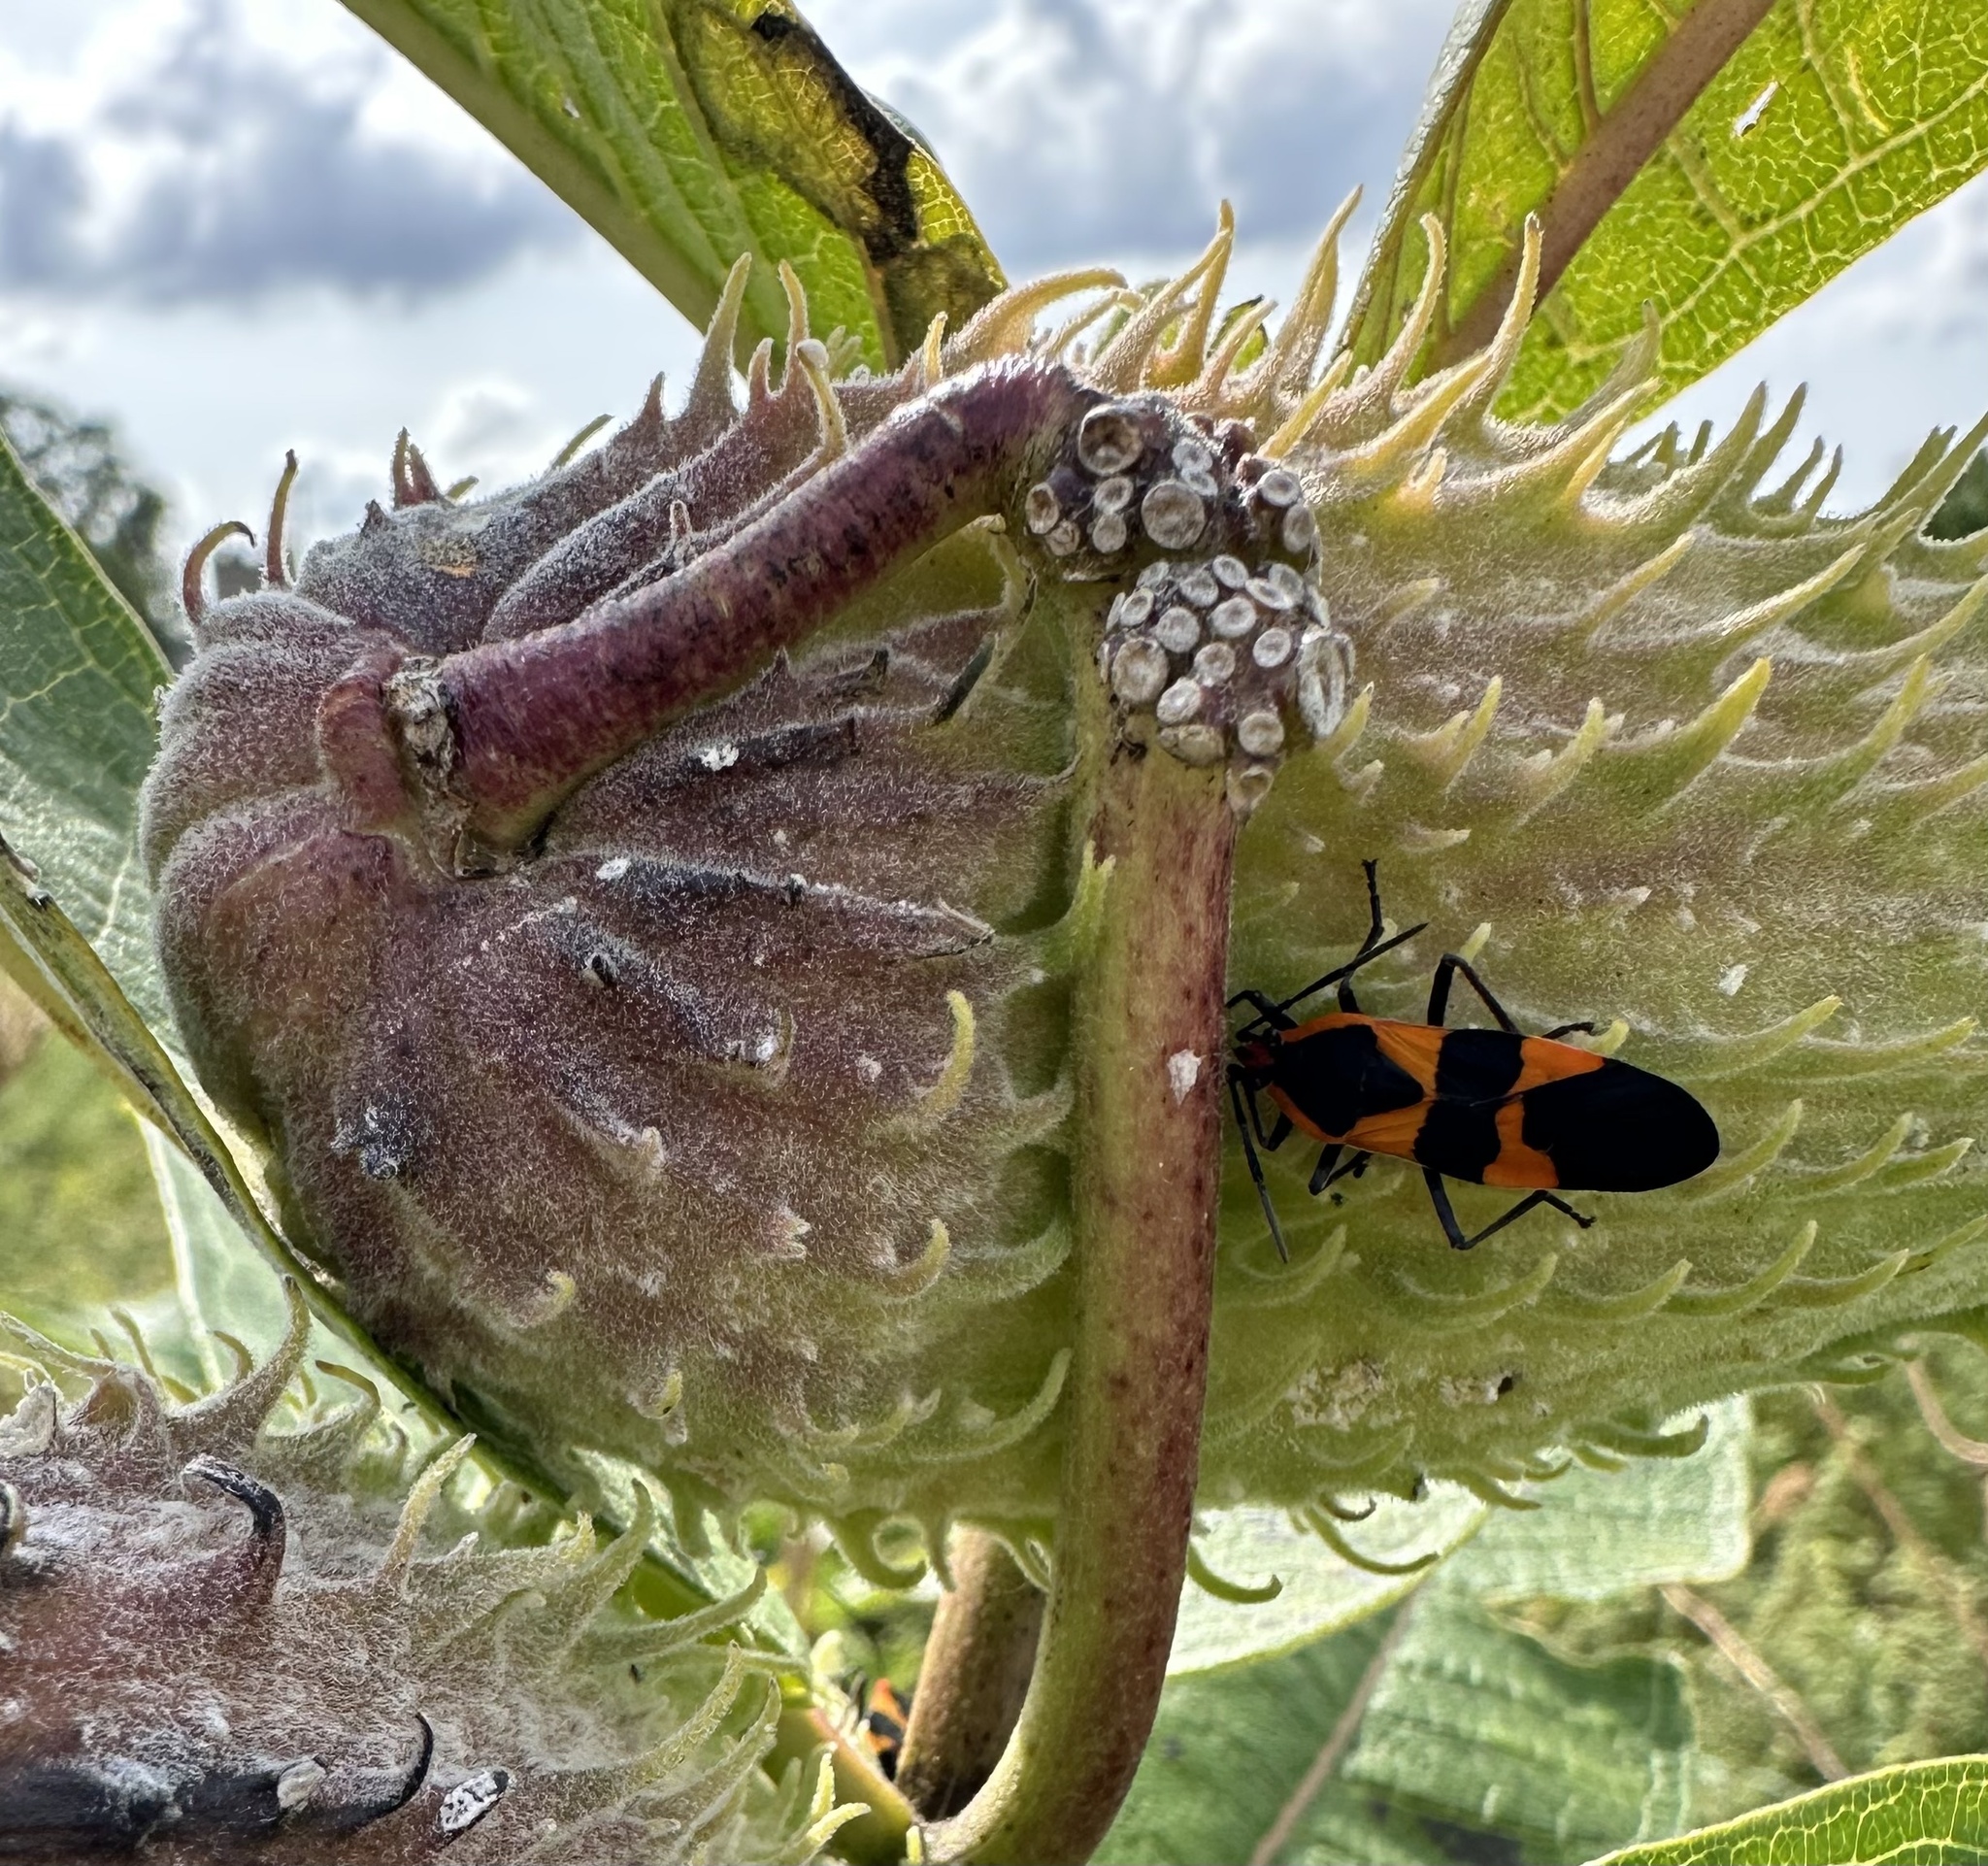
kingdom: Animalia
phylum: Arthropoda
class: Insecta
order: Hemiptera
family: Lygaeidae
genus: Oncopeltus
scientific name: Oncopeltus fasciatus
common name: Large milkweed bug
